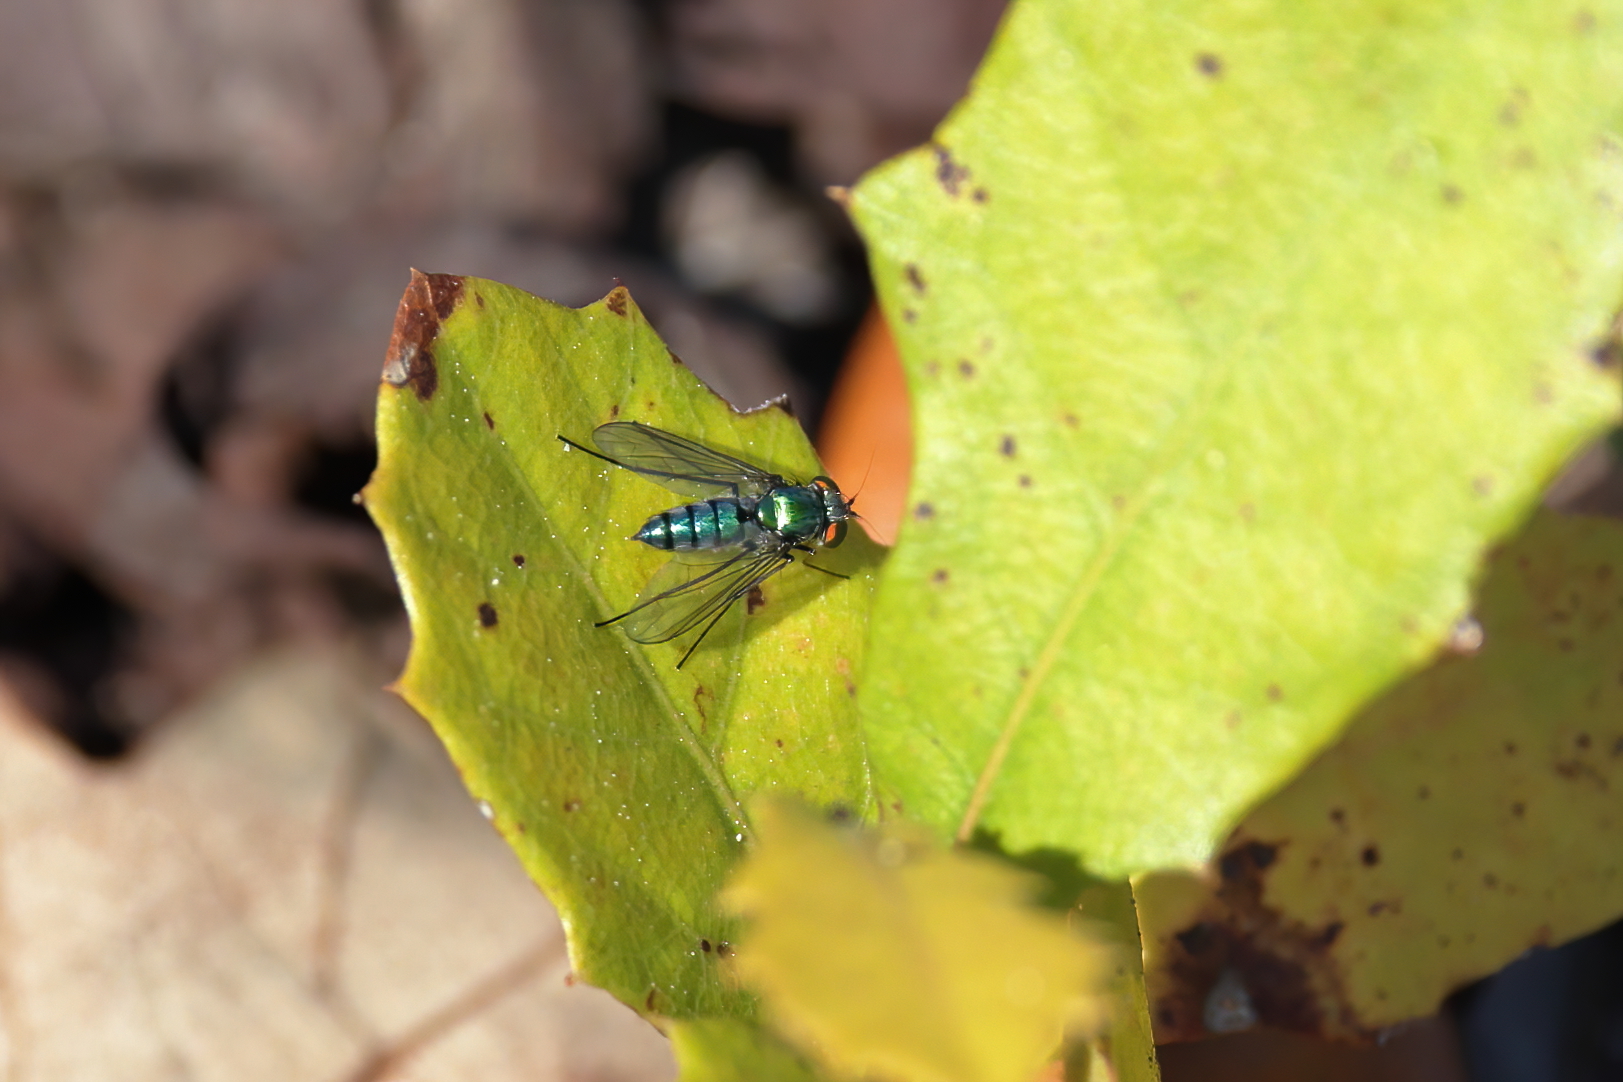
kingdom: Animalia
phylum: Arthropoda
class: Insecta
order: Diptera
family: Dolichopodidae
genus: Condylostylus
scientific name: Condylostylus longicornis
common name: Long-legged fly
